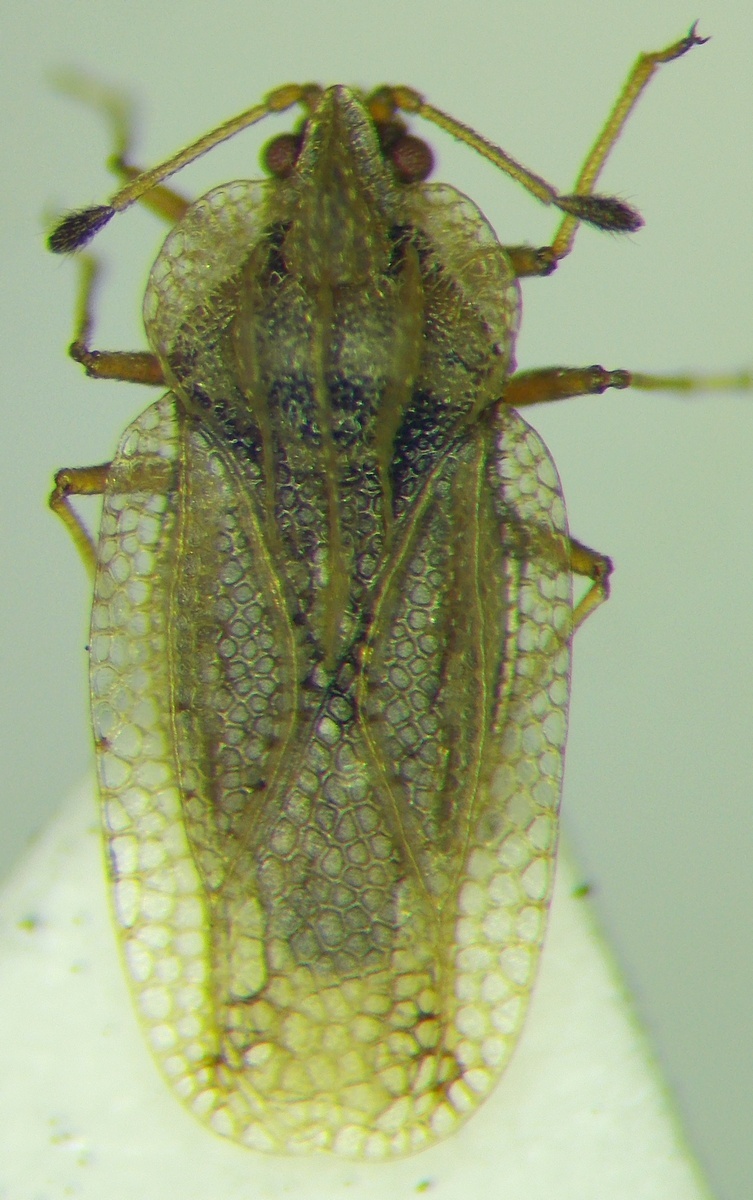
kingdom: Plantae
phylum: Tracheophyta
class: Liliopsida
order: Poales
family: Juncaceae
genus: Elasmotropis
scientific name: Elasmotropis testacea
